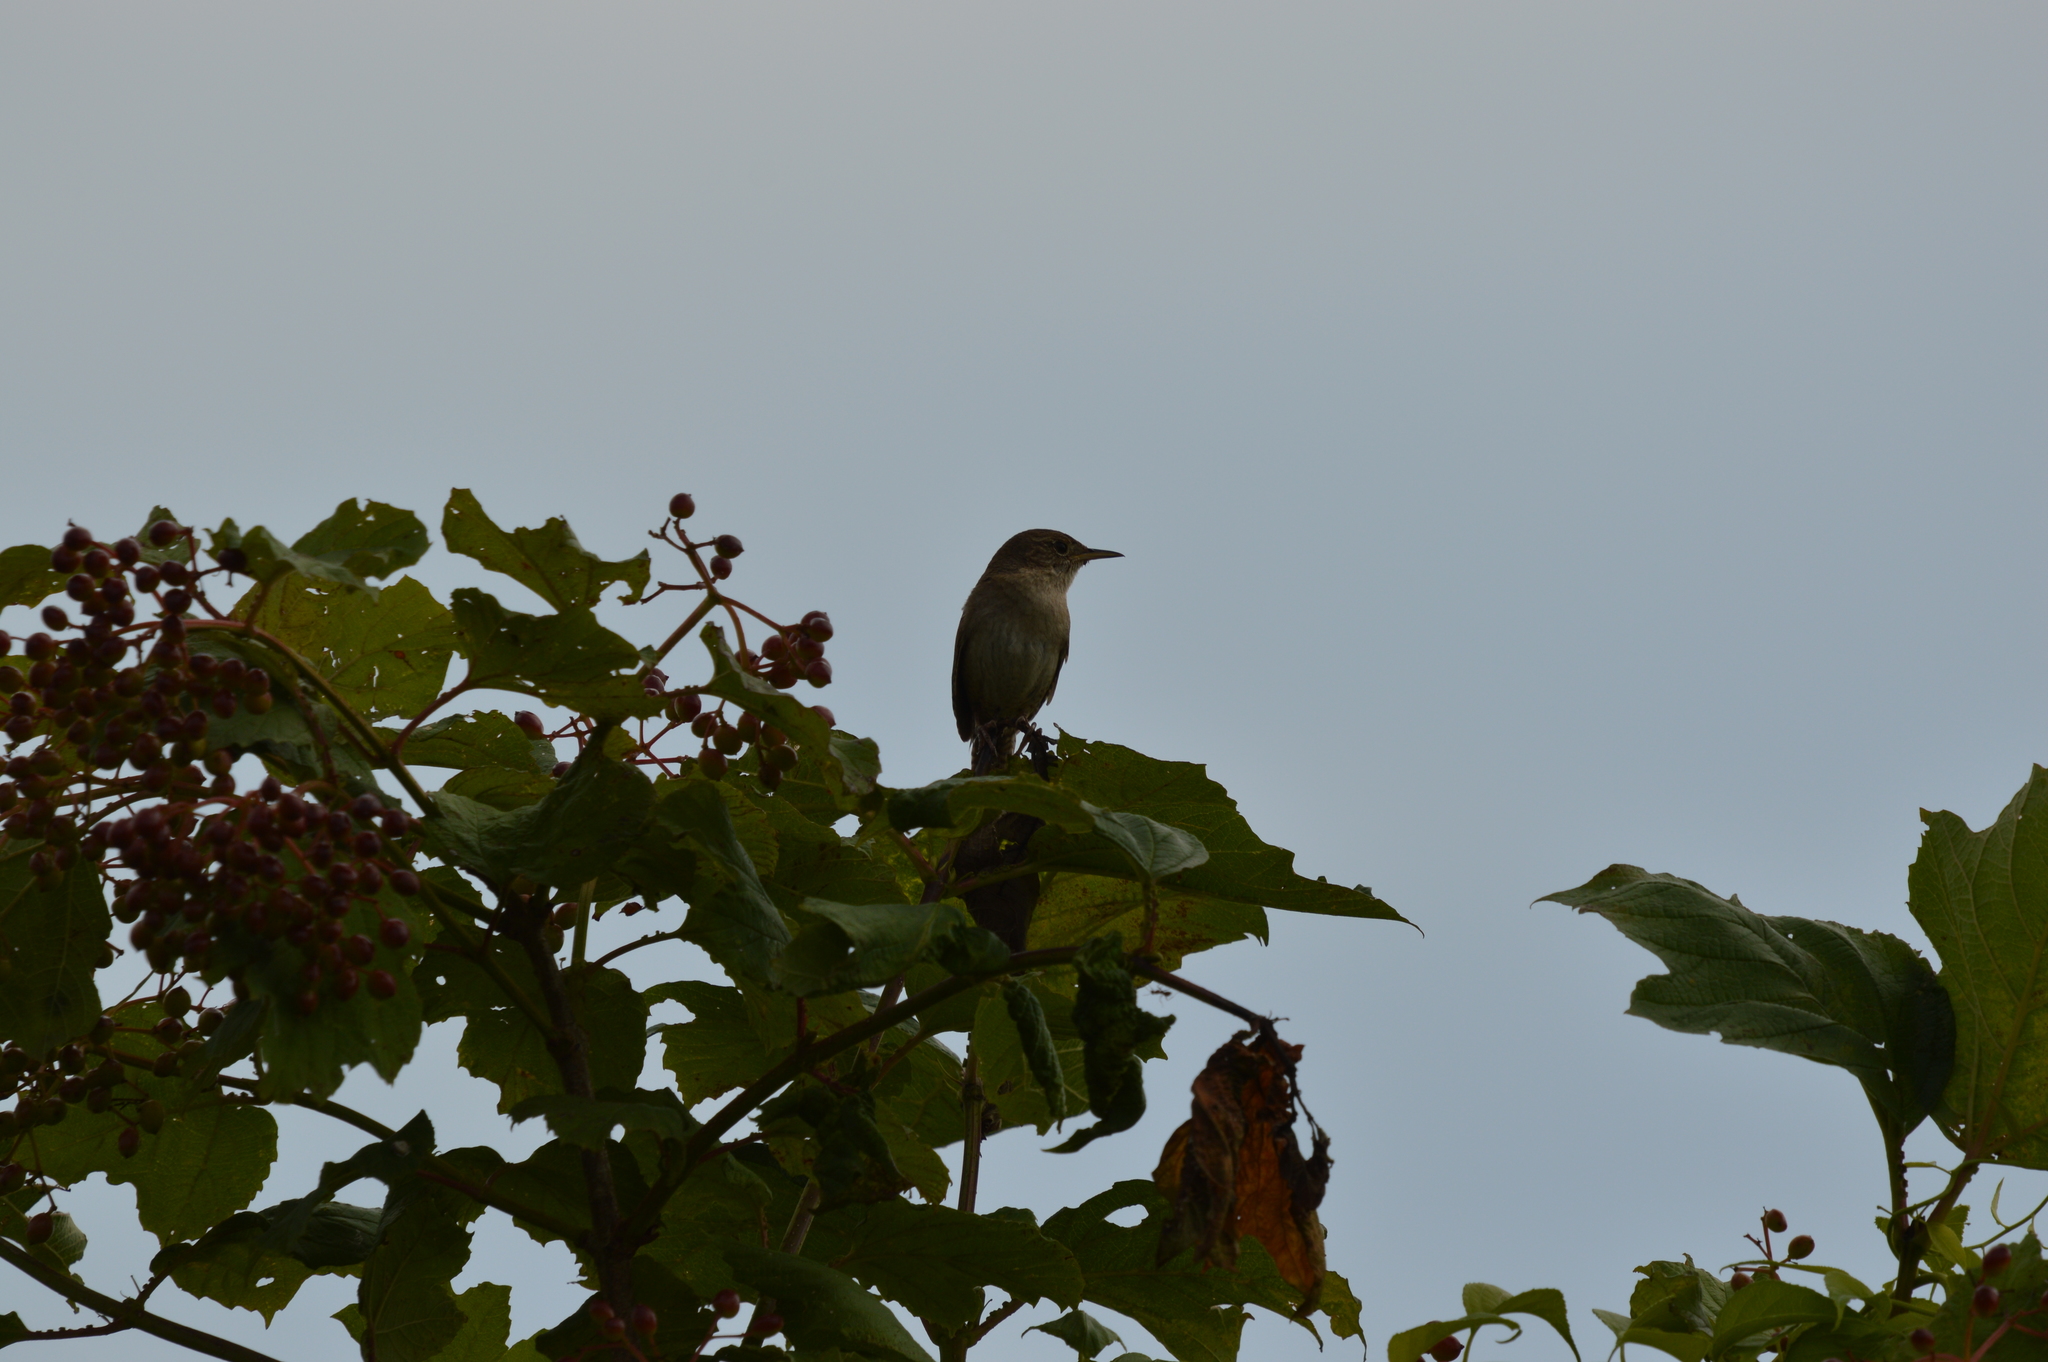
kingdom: Animalia
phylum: Chordata
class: Aves
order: Passeriformes
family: Troglodytidae
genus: Troglodytes
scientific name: Troglodytes aedon
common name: House wren
